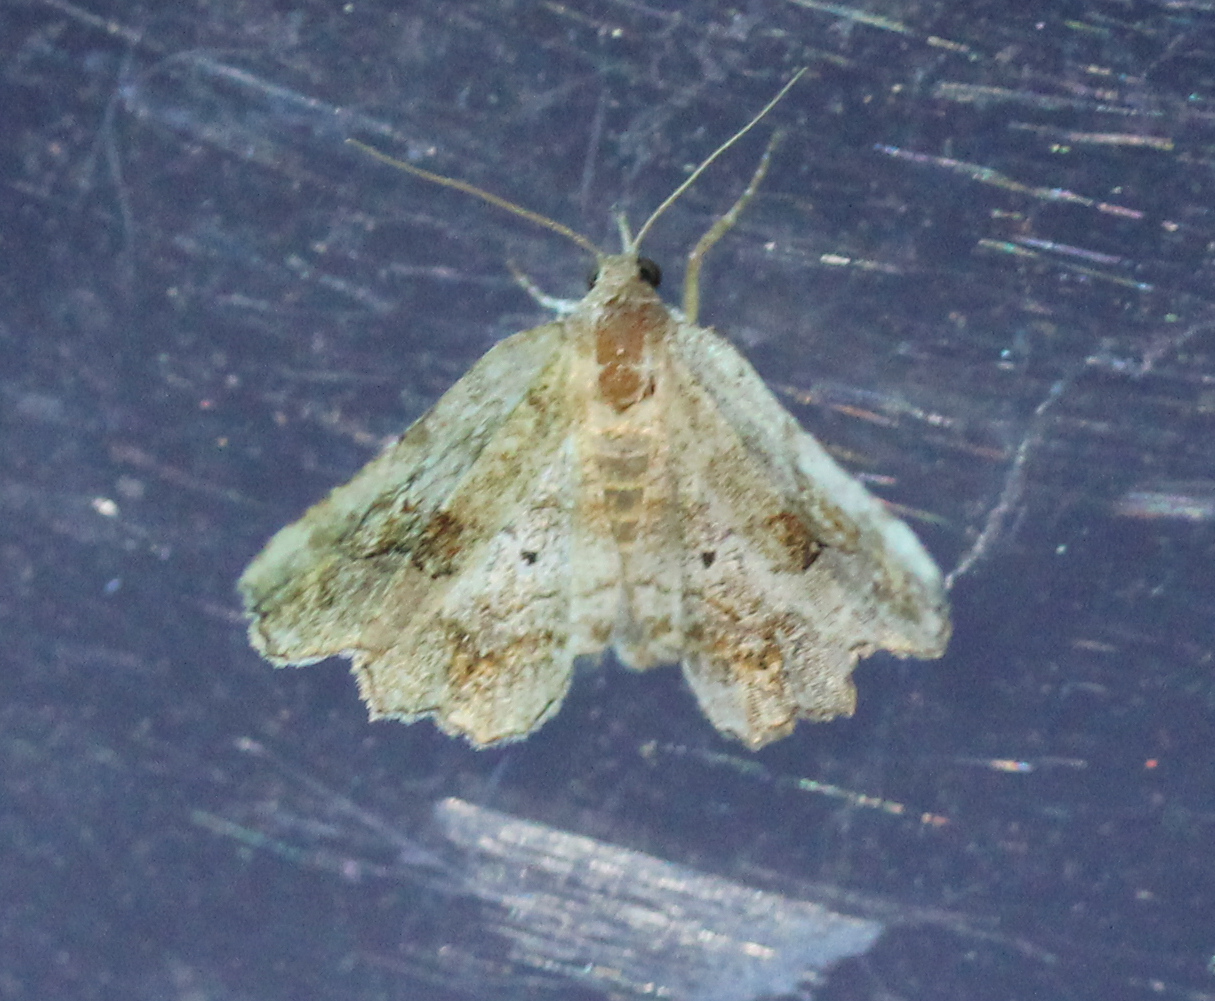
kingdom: Animalia
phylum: Arthropoda
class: Insecta
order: Lepidoptera
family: Erebidae
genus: Pangrapta
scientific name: Pangrapta decoralis
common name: Decorated owlet
